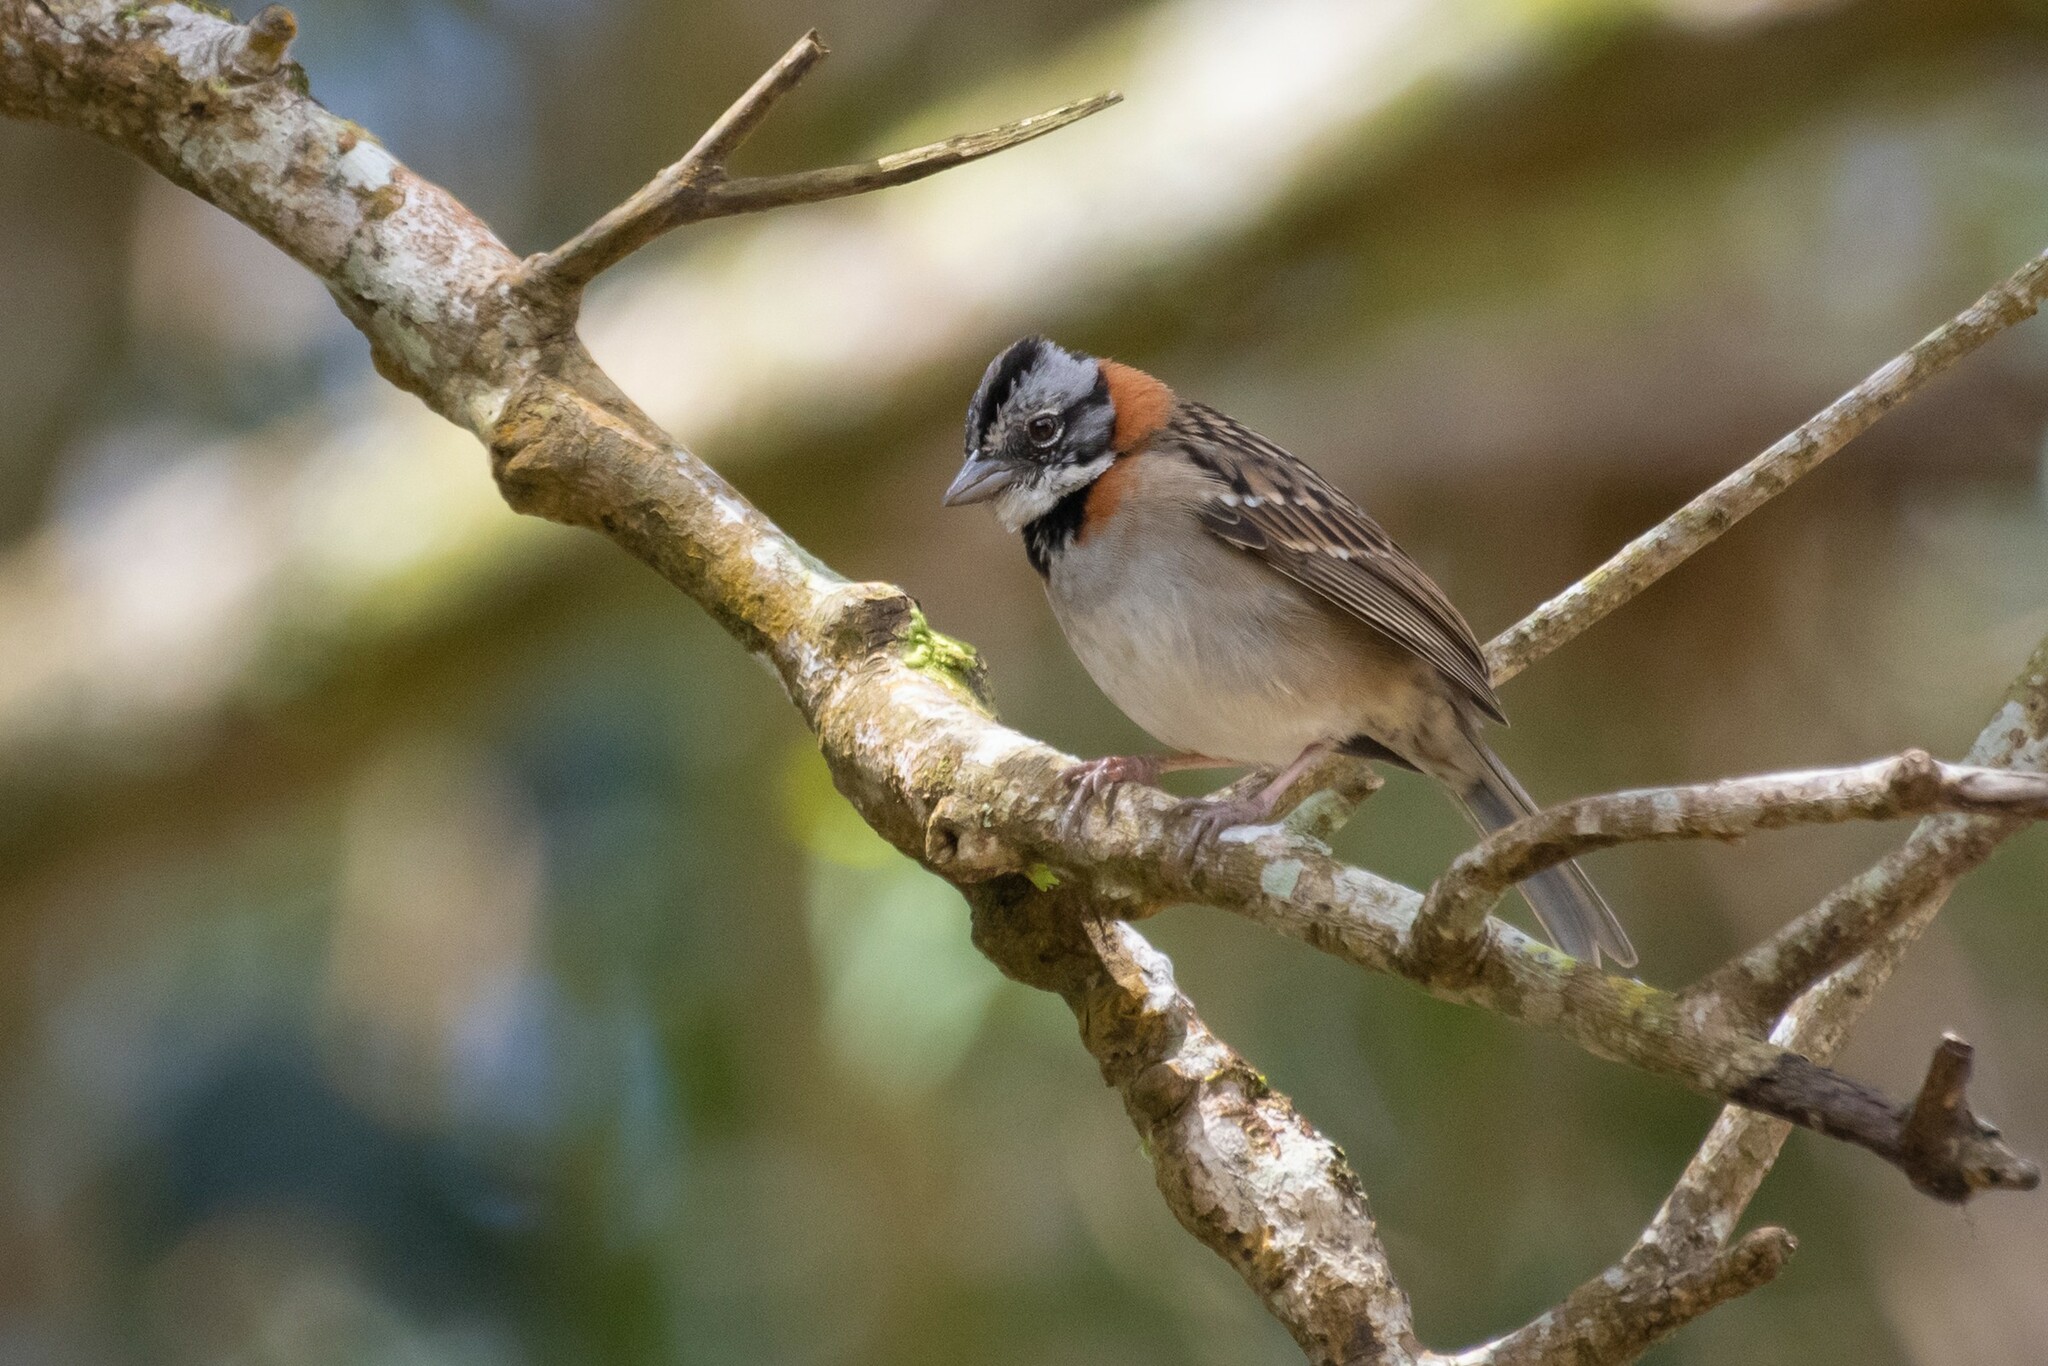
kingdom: Animalia
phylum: Chordata
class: Aves
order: Passeriformes
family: Passerellidae
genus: Zonotrichia
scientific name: Zonotrichia capensis
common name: Rufous-collared sparrow
